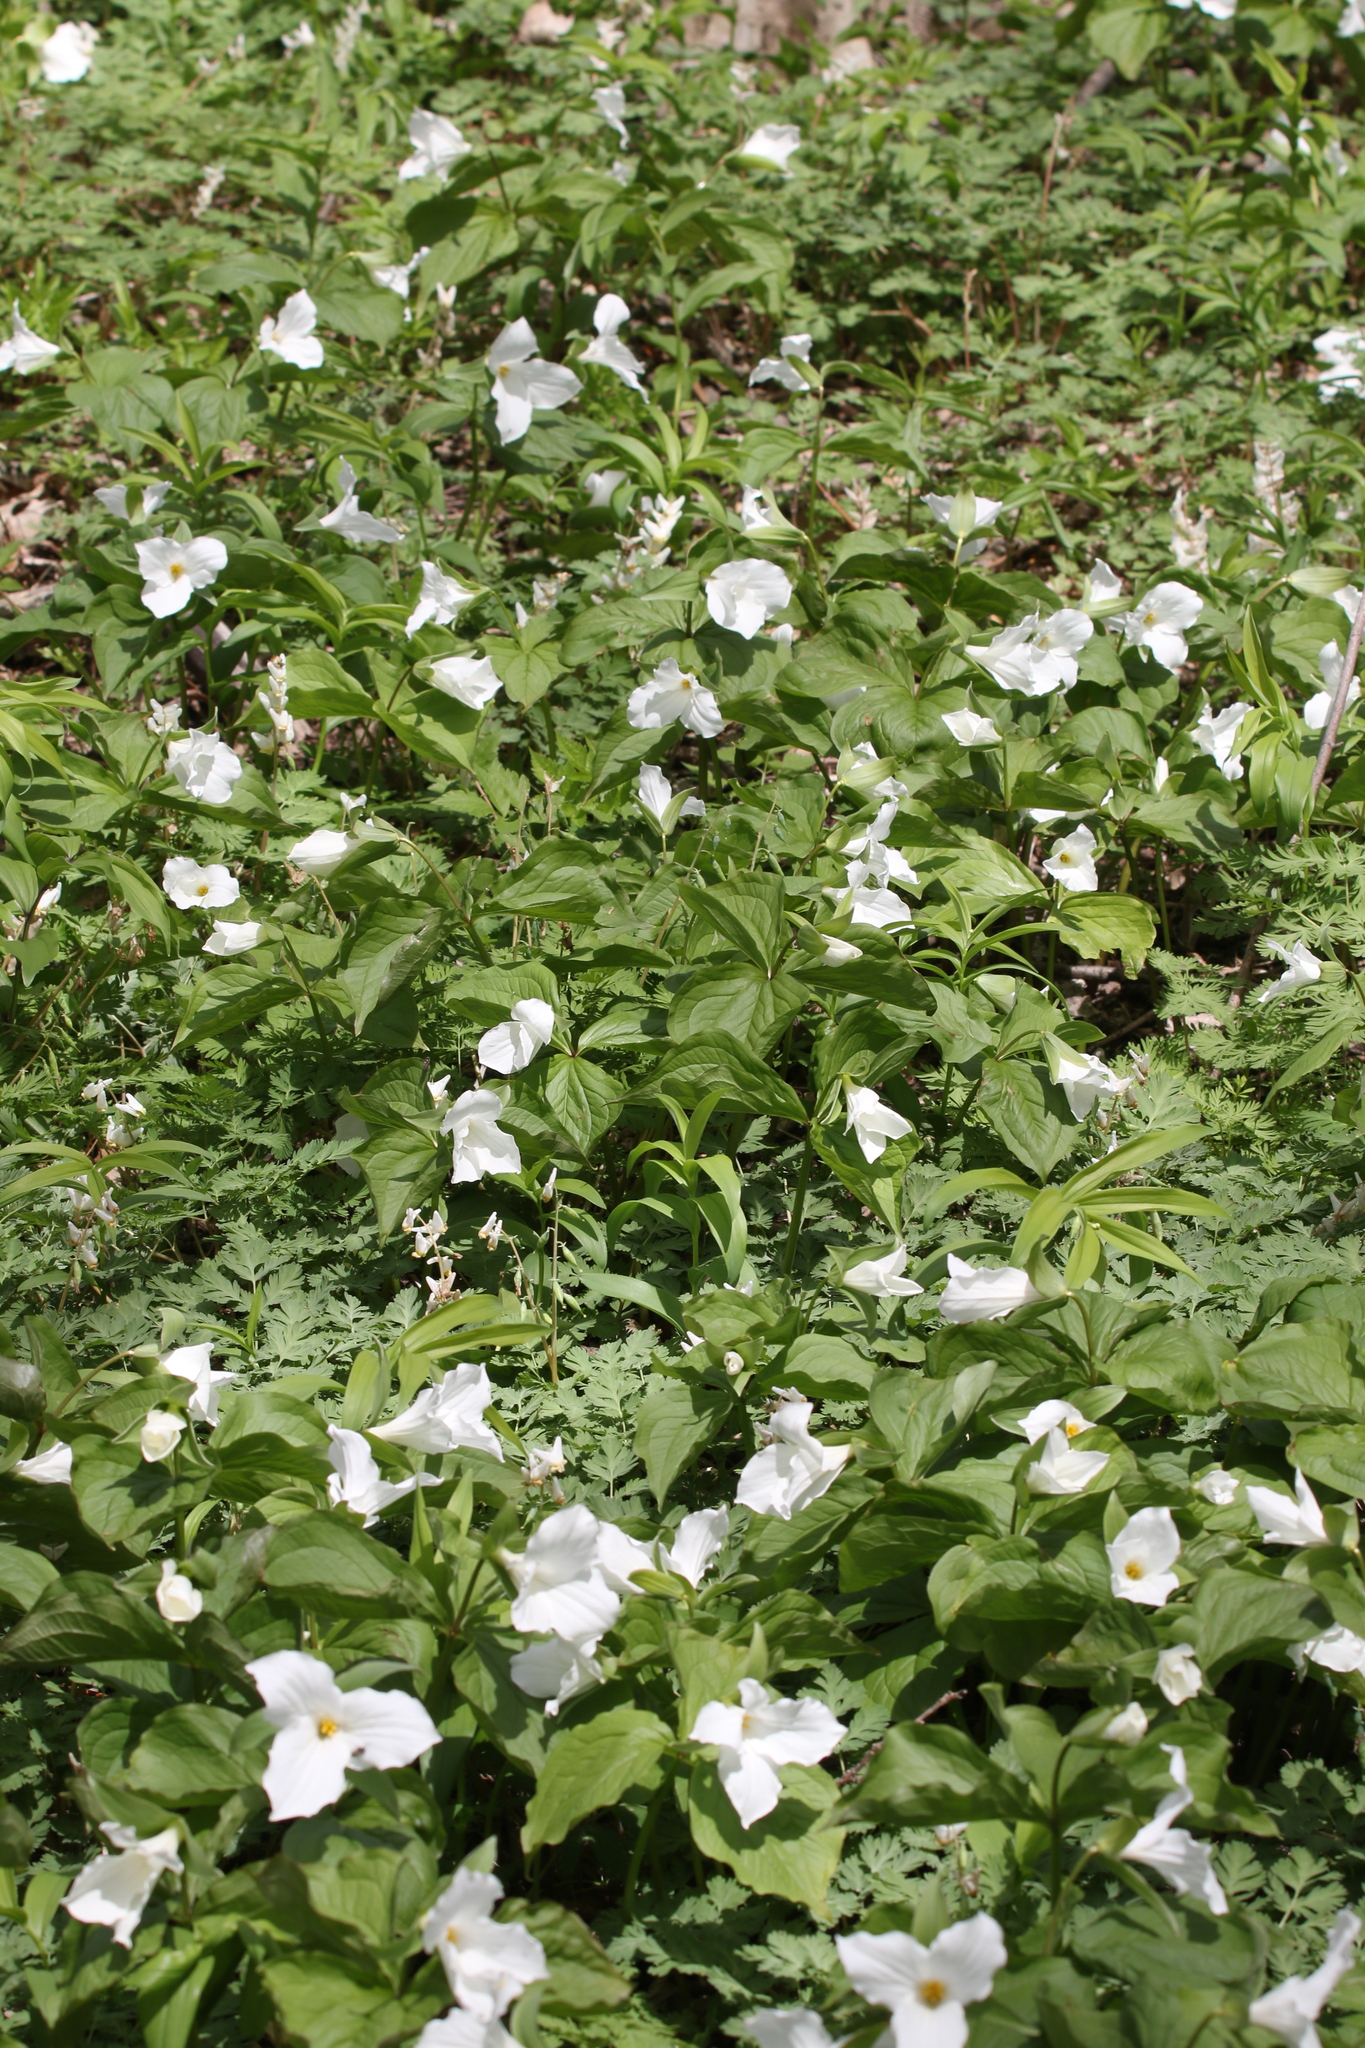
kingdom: Plantae
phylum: Tracheophyta
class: Liliopsida
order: Liliales
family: Melanthiaceae
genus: Trillium
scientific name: Trillium grandiflorum
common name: Great white trillium
